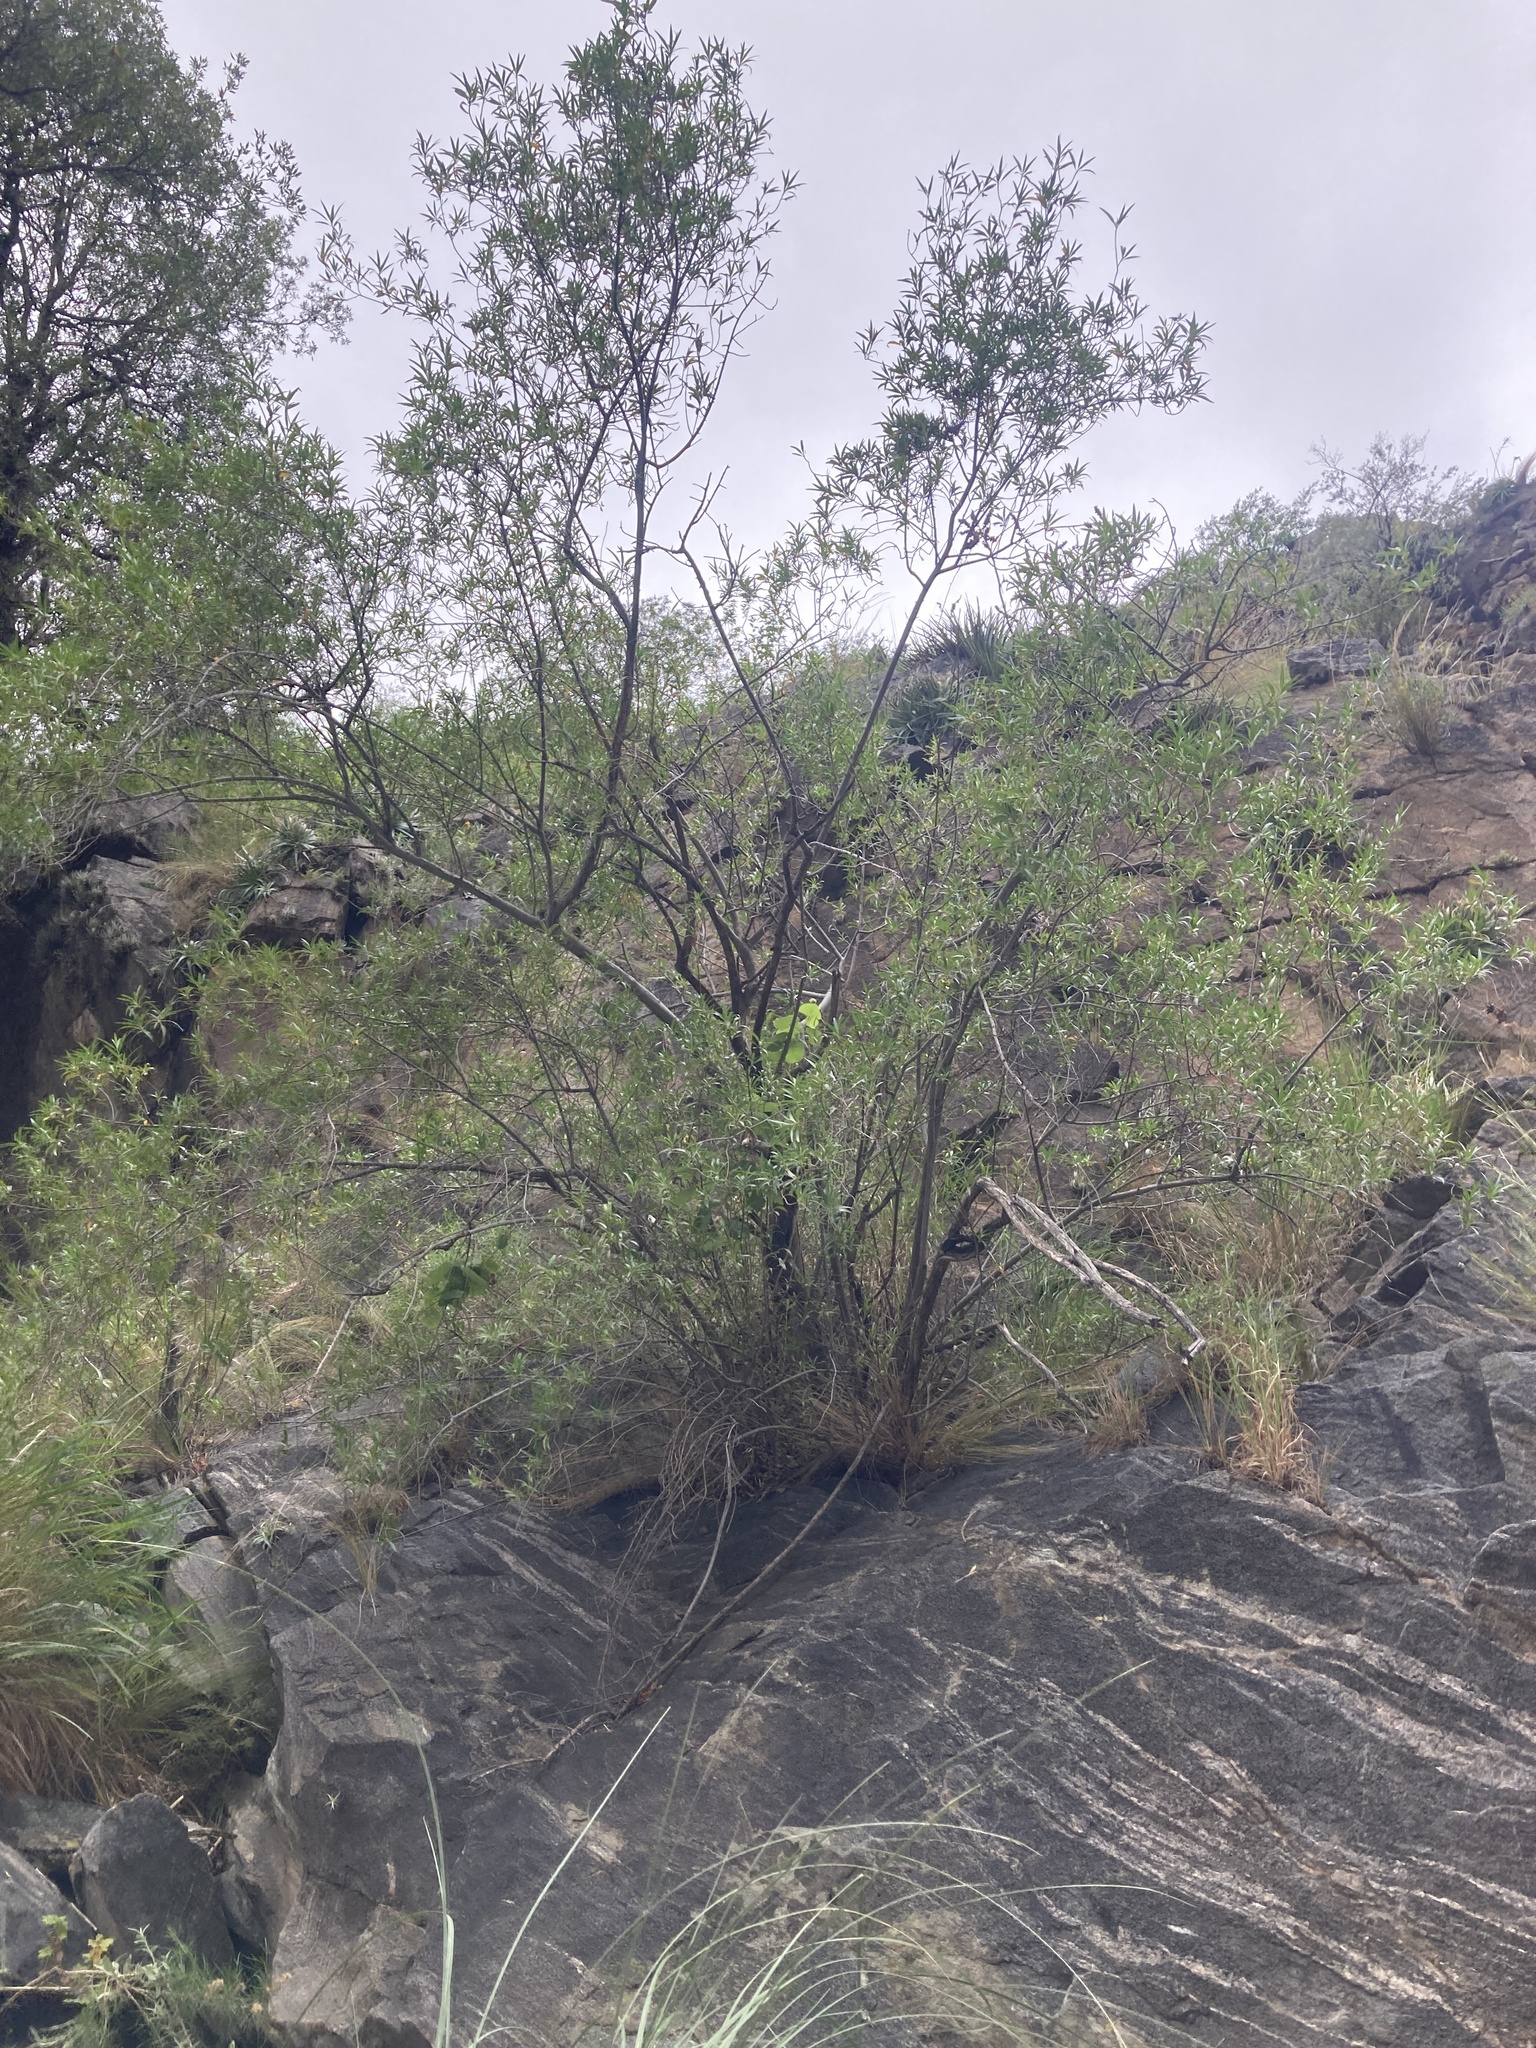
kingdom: Plantae
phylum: Tracheophyta
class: Magnoliopsida
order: Rosales
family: Rosaceae
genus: Kageneckia
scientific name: Kageneckia lanceolata
